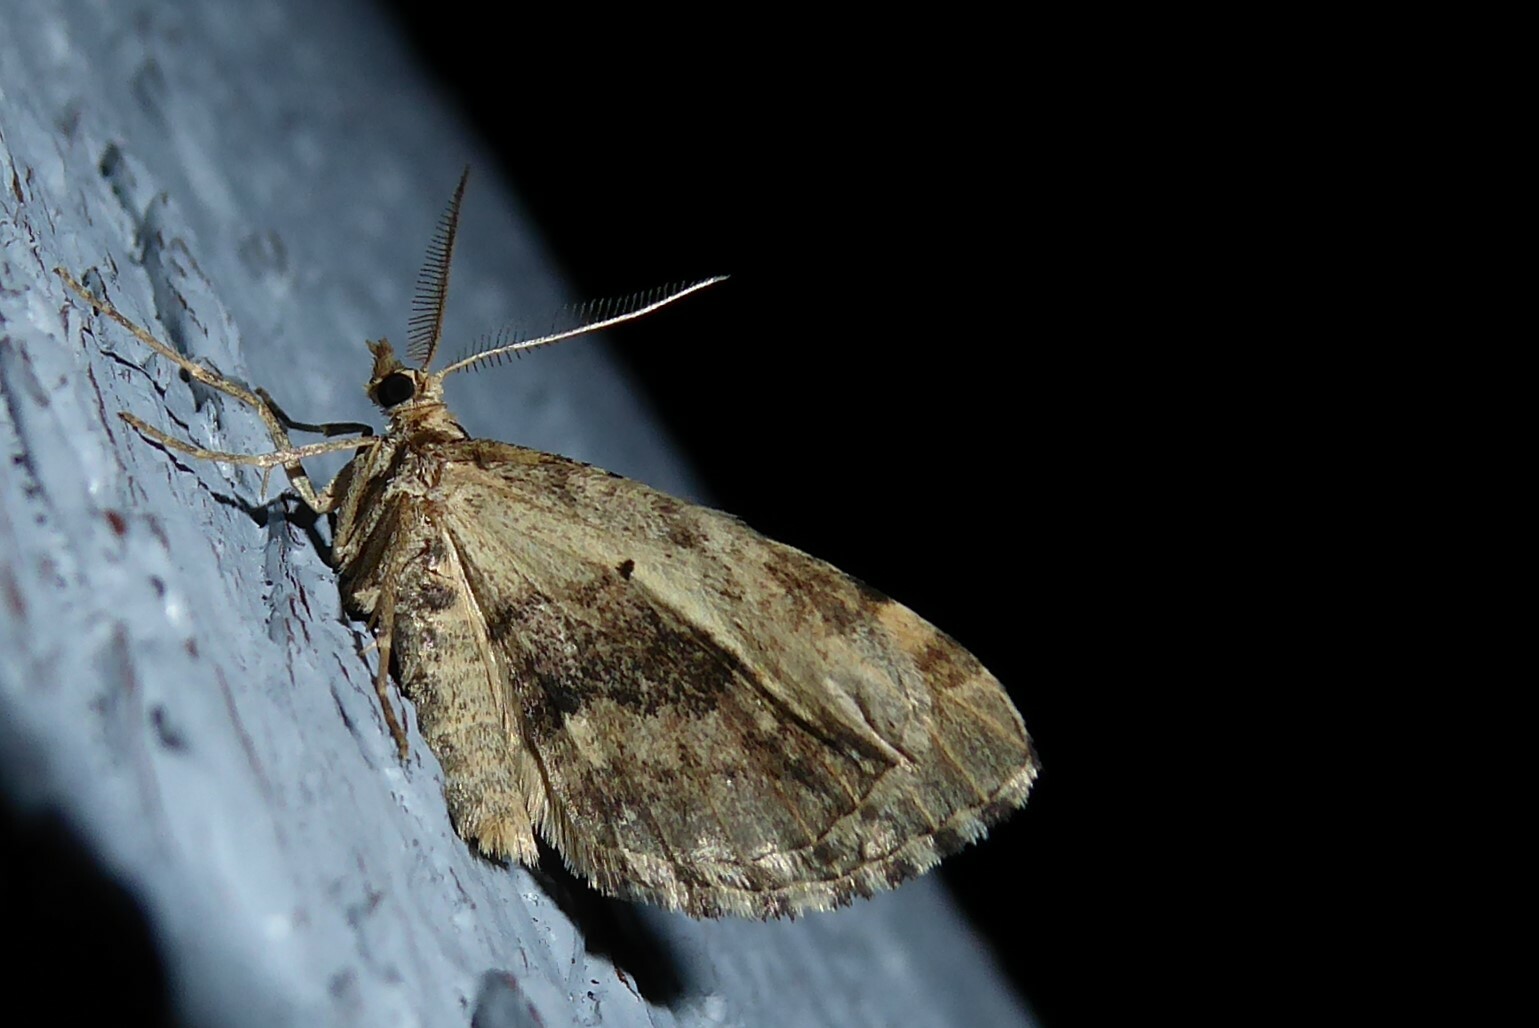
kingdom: Animalia
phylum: Arthropoda
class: Insecta
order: Lepidoptera
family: Geometridae
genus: Asaphodes
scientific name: Asaphodes aegrota
